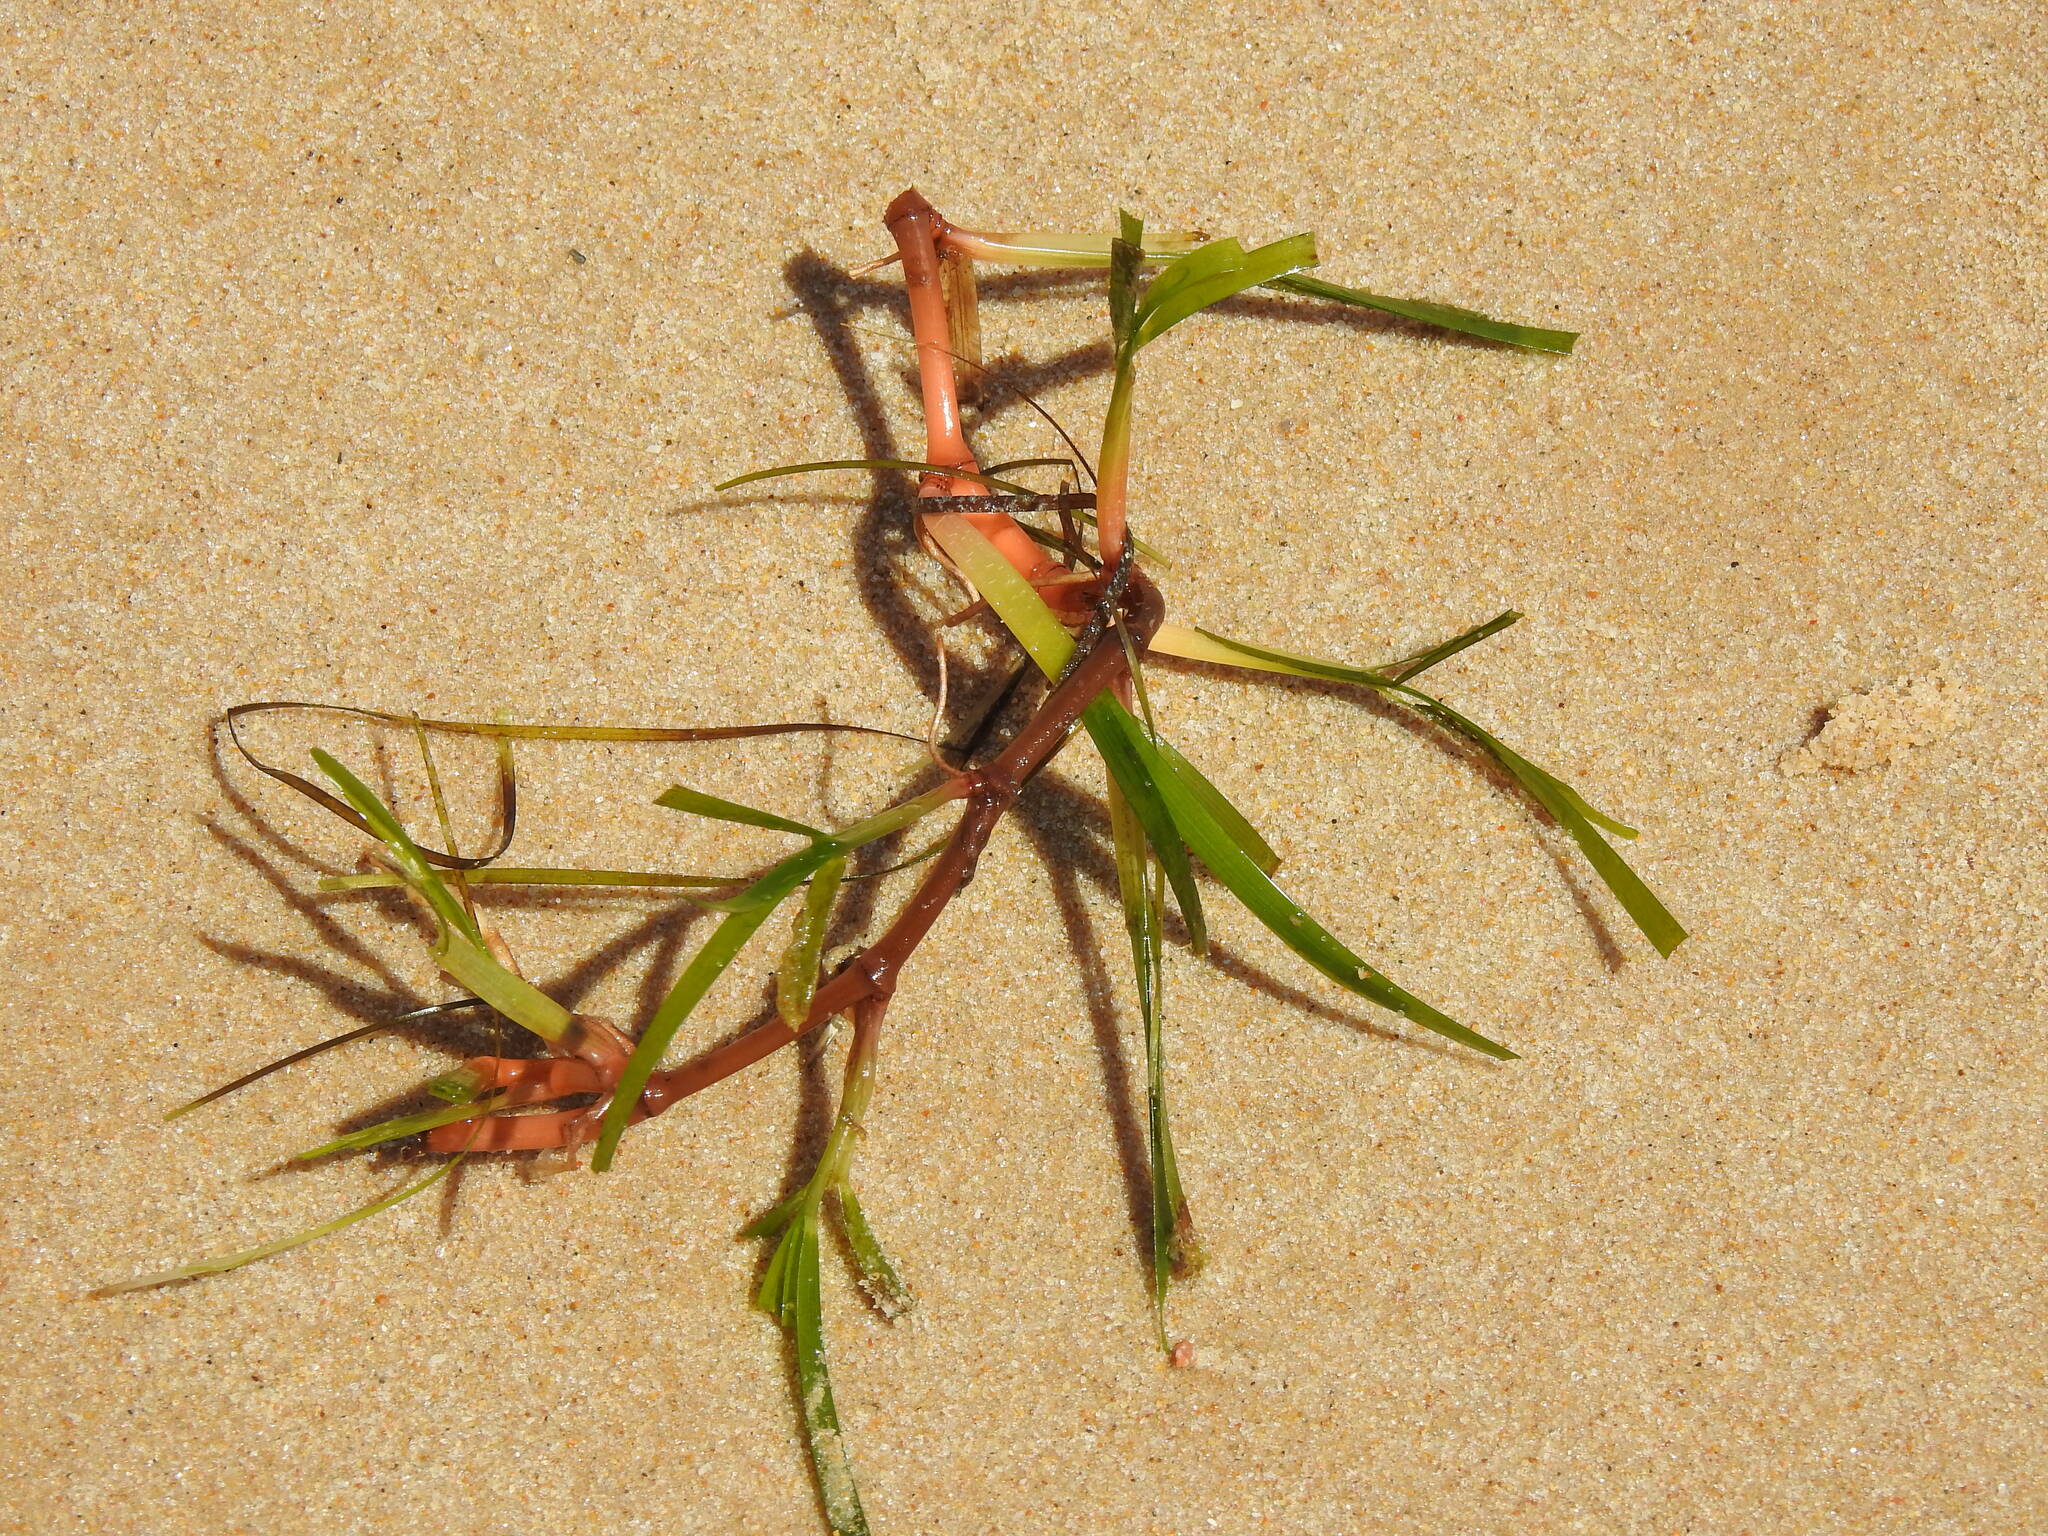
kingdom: Plantae
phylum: Tracheophyta
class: Liliopsida
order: Alismatales
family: Cymodoceaceae
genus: Cymodocea
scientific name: Cymodocea nodosa
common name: Slender seagrass
